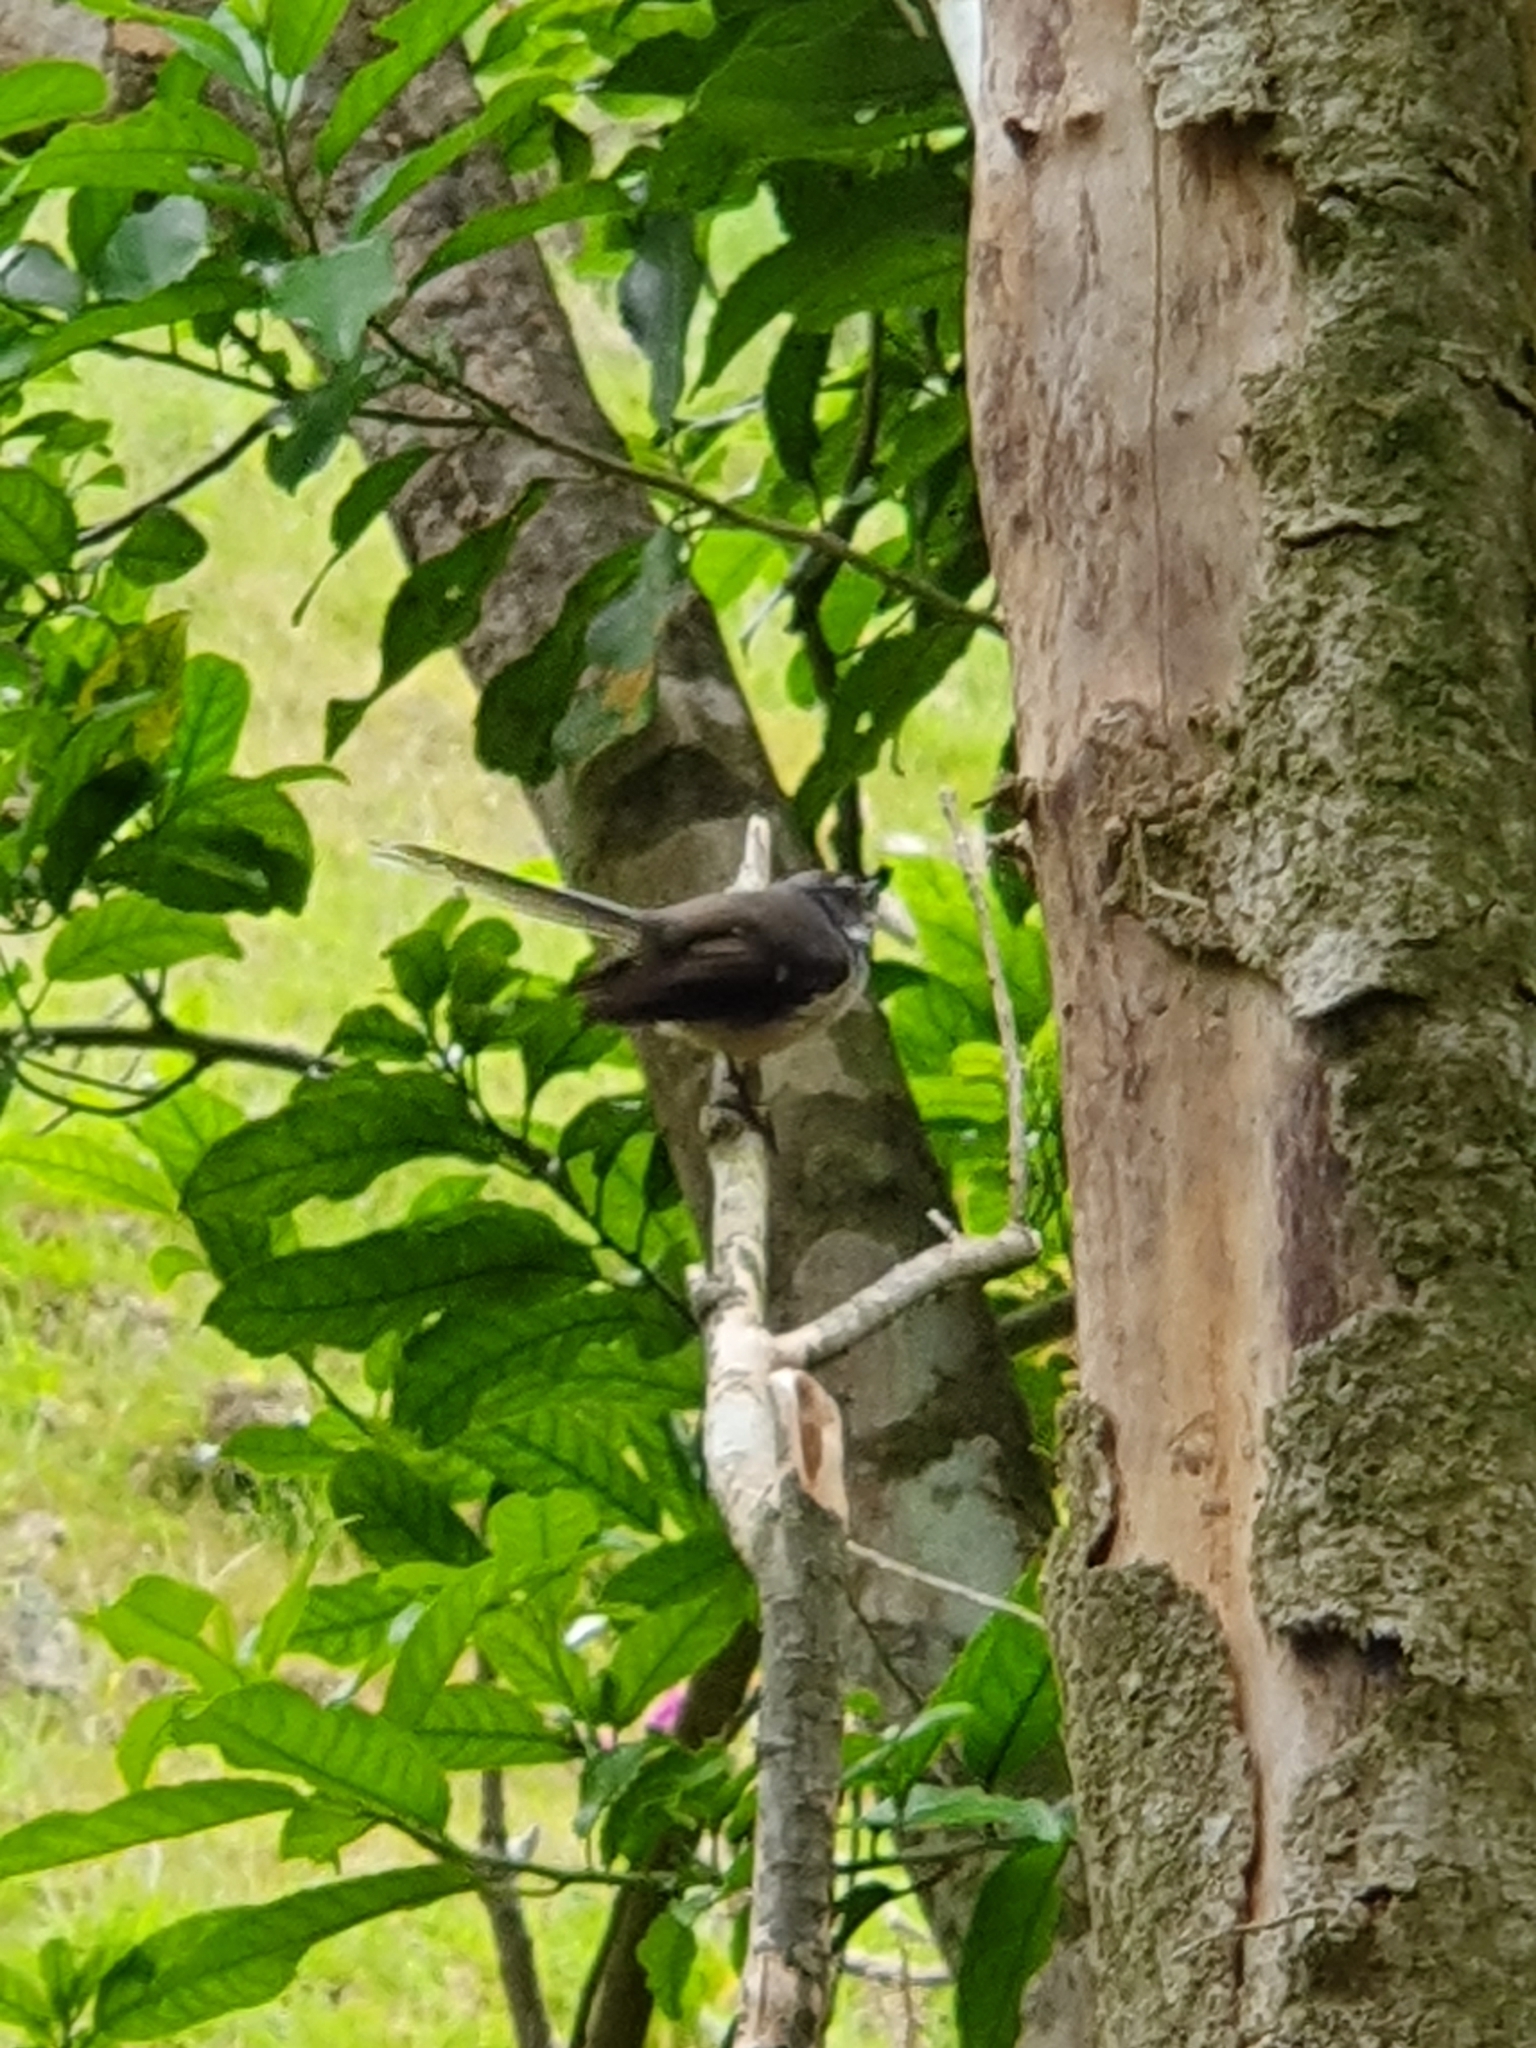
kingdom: Animalia
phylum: Chordata
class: Aves
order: Passeriformes
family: Rhipiduridae
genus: Rhipidura
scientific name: Rhipidura fuliginosa
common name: New zealand fantail
